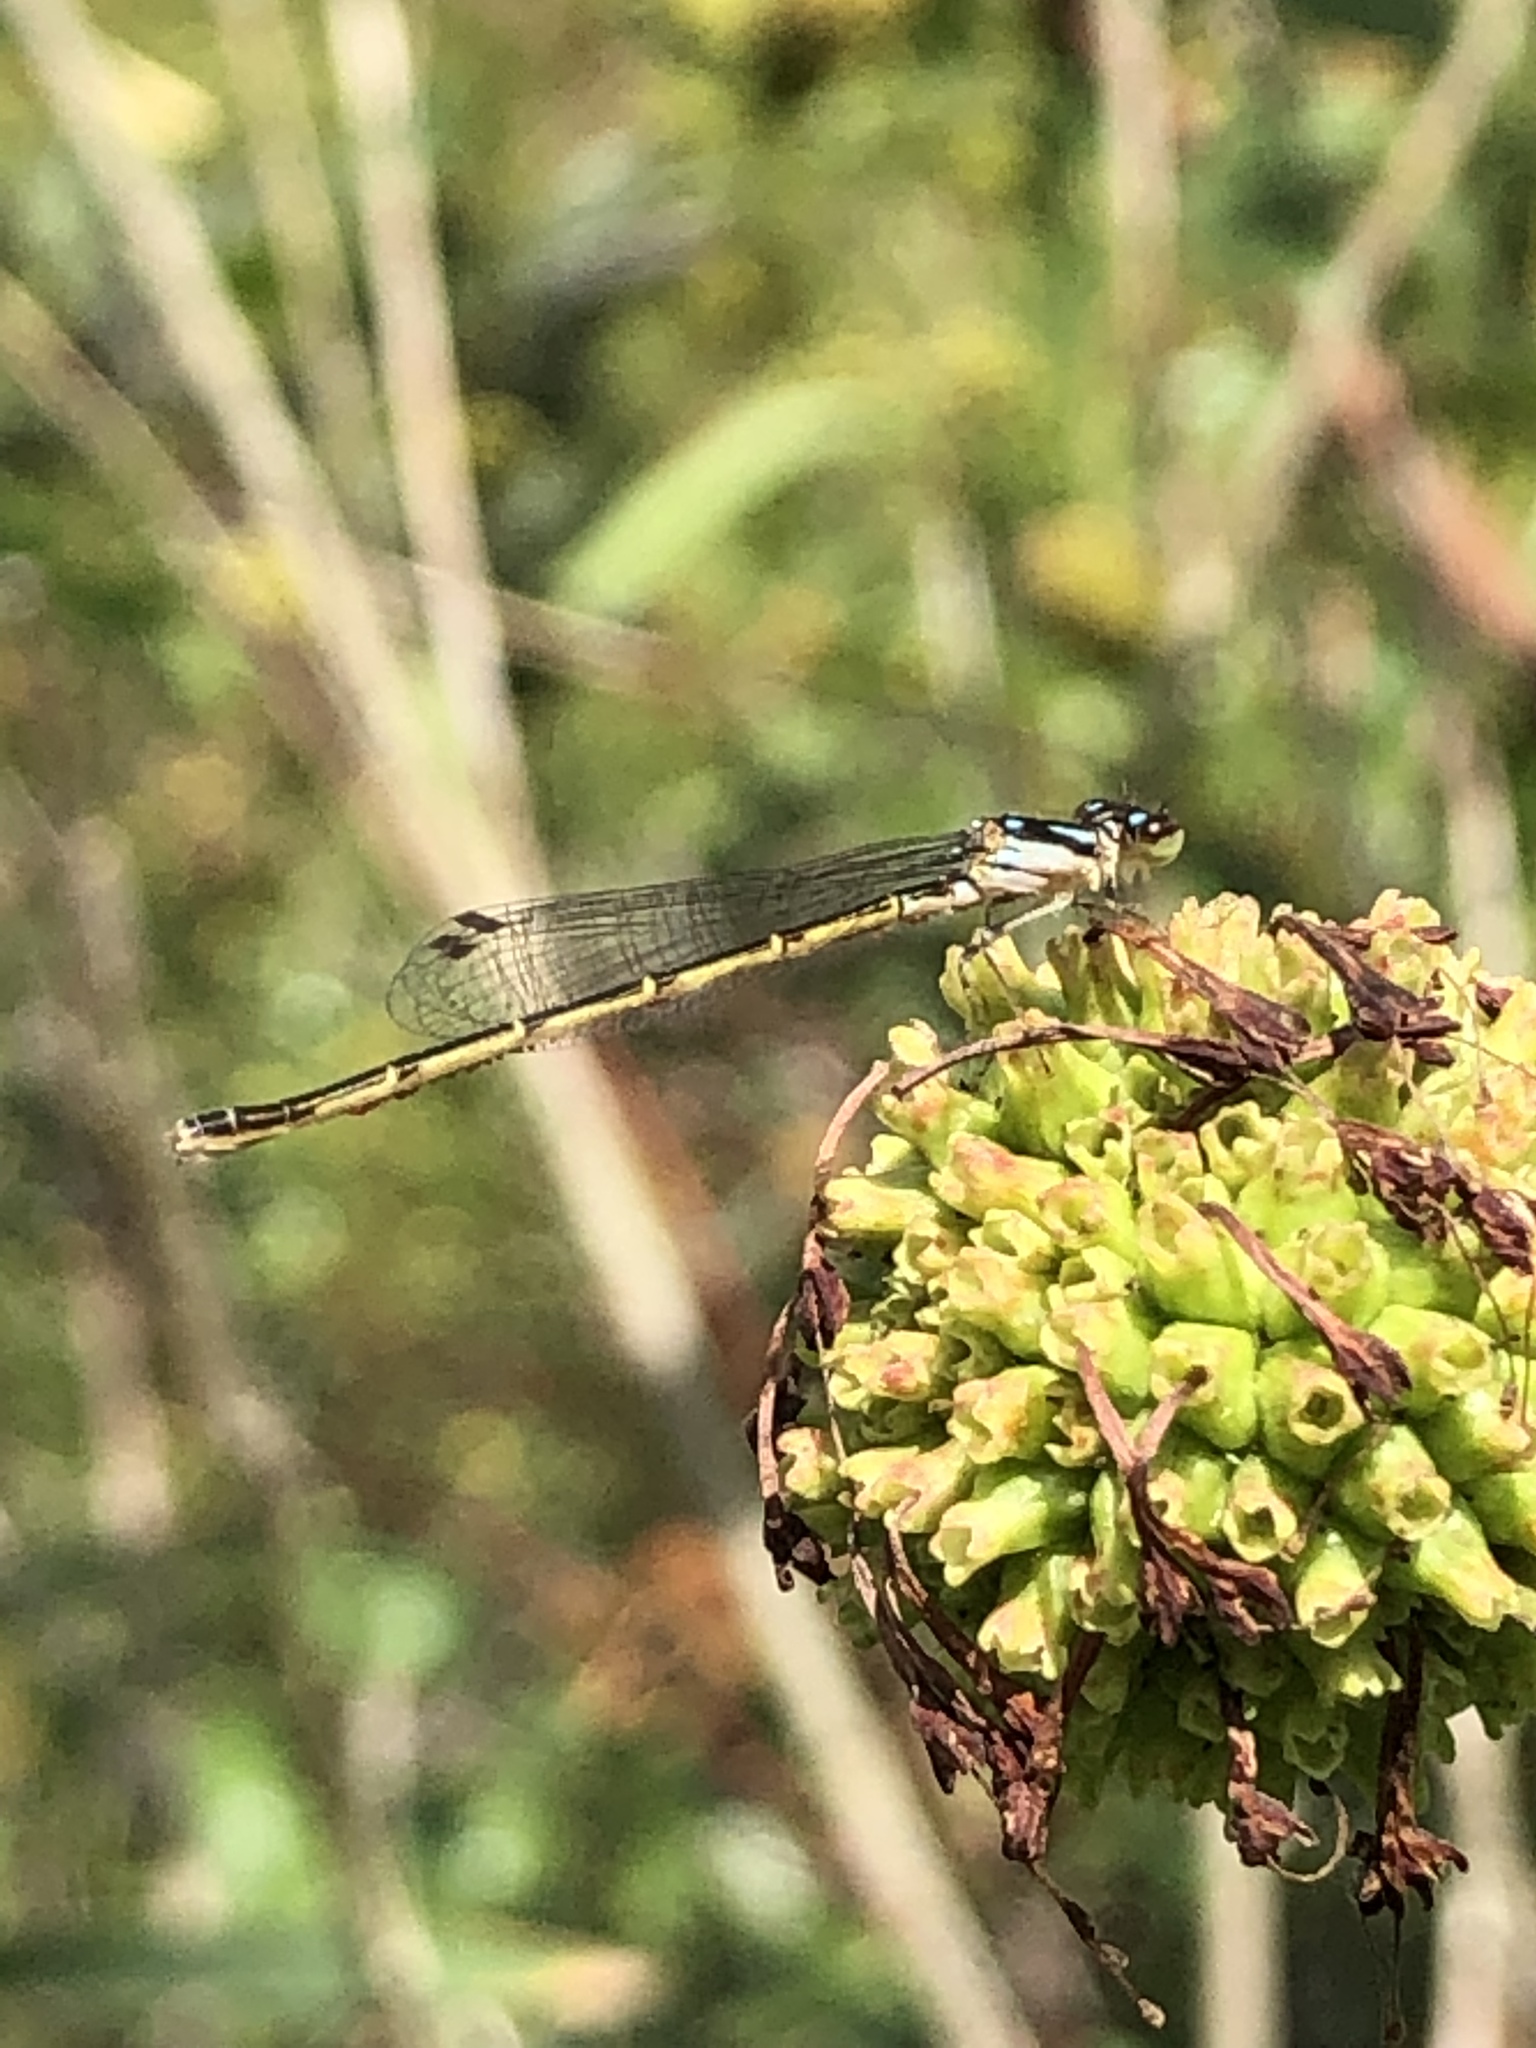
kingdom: Animalia
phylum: Arthropoda
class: Insecta
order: Odonata
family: Coenagrionidae
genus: Ischnura
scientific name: Ischnura posita
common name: Fragile forktail
